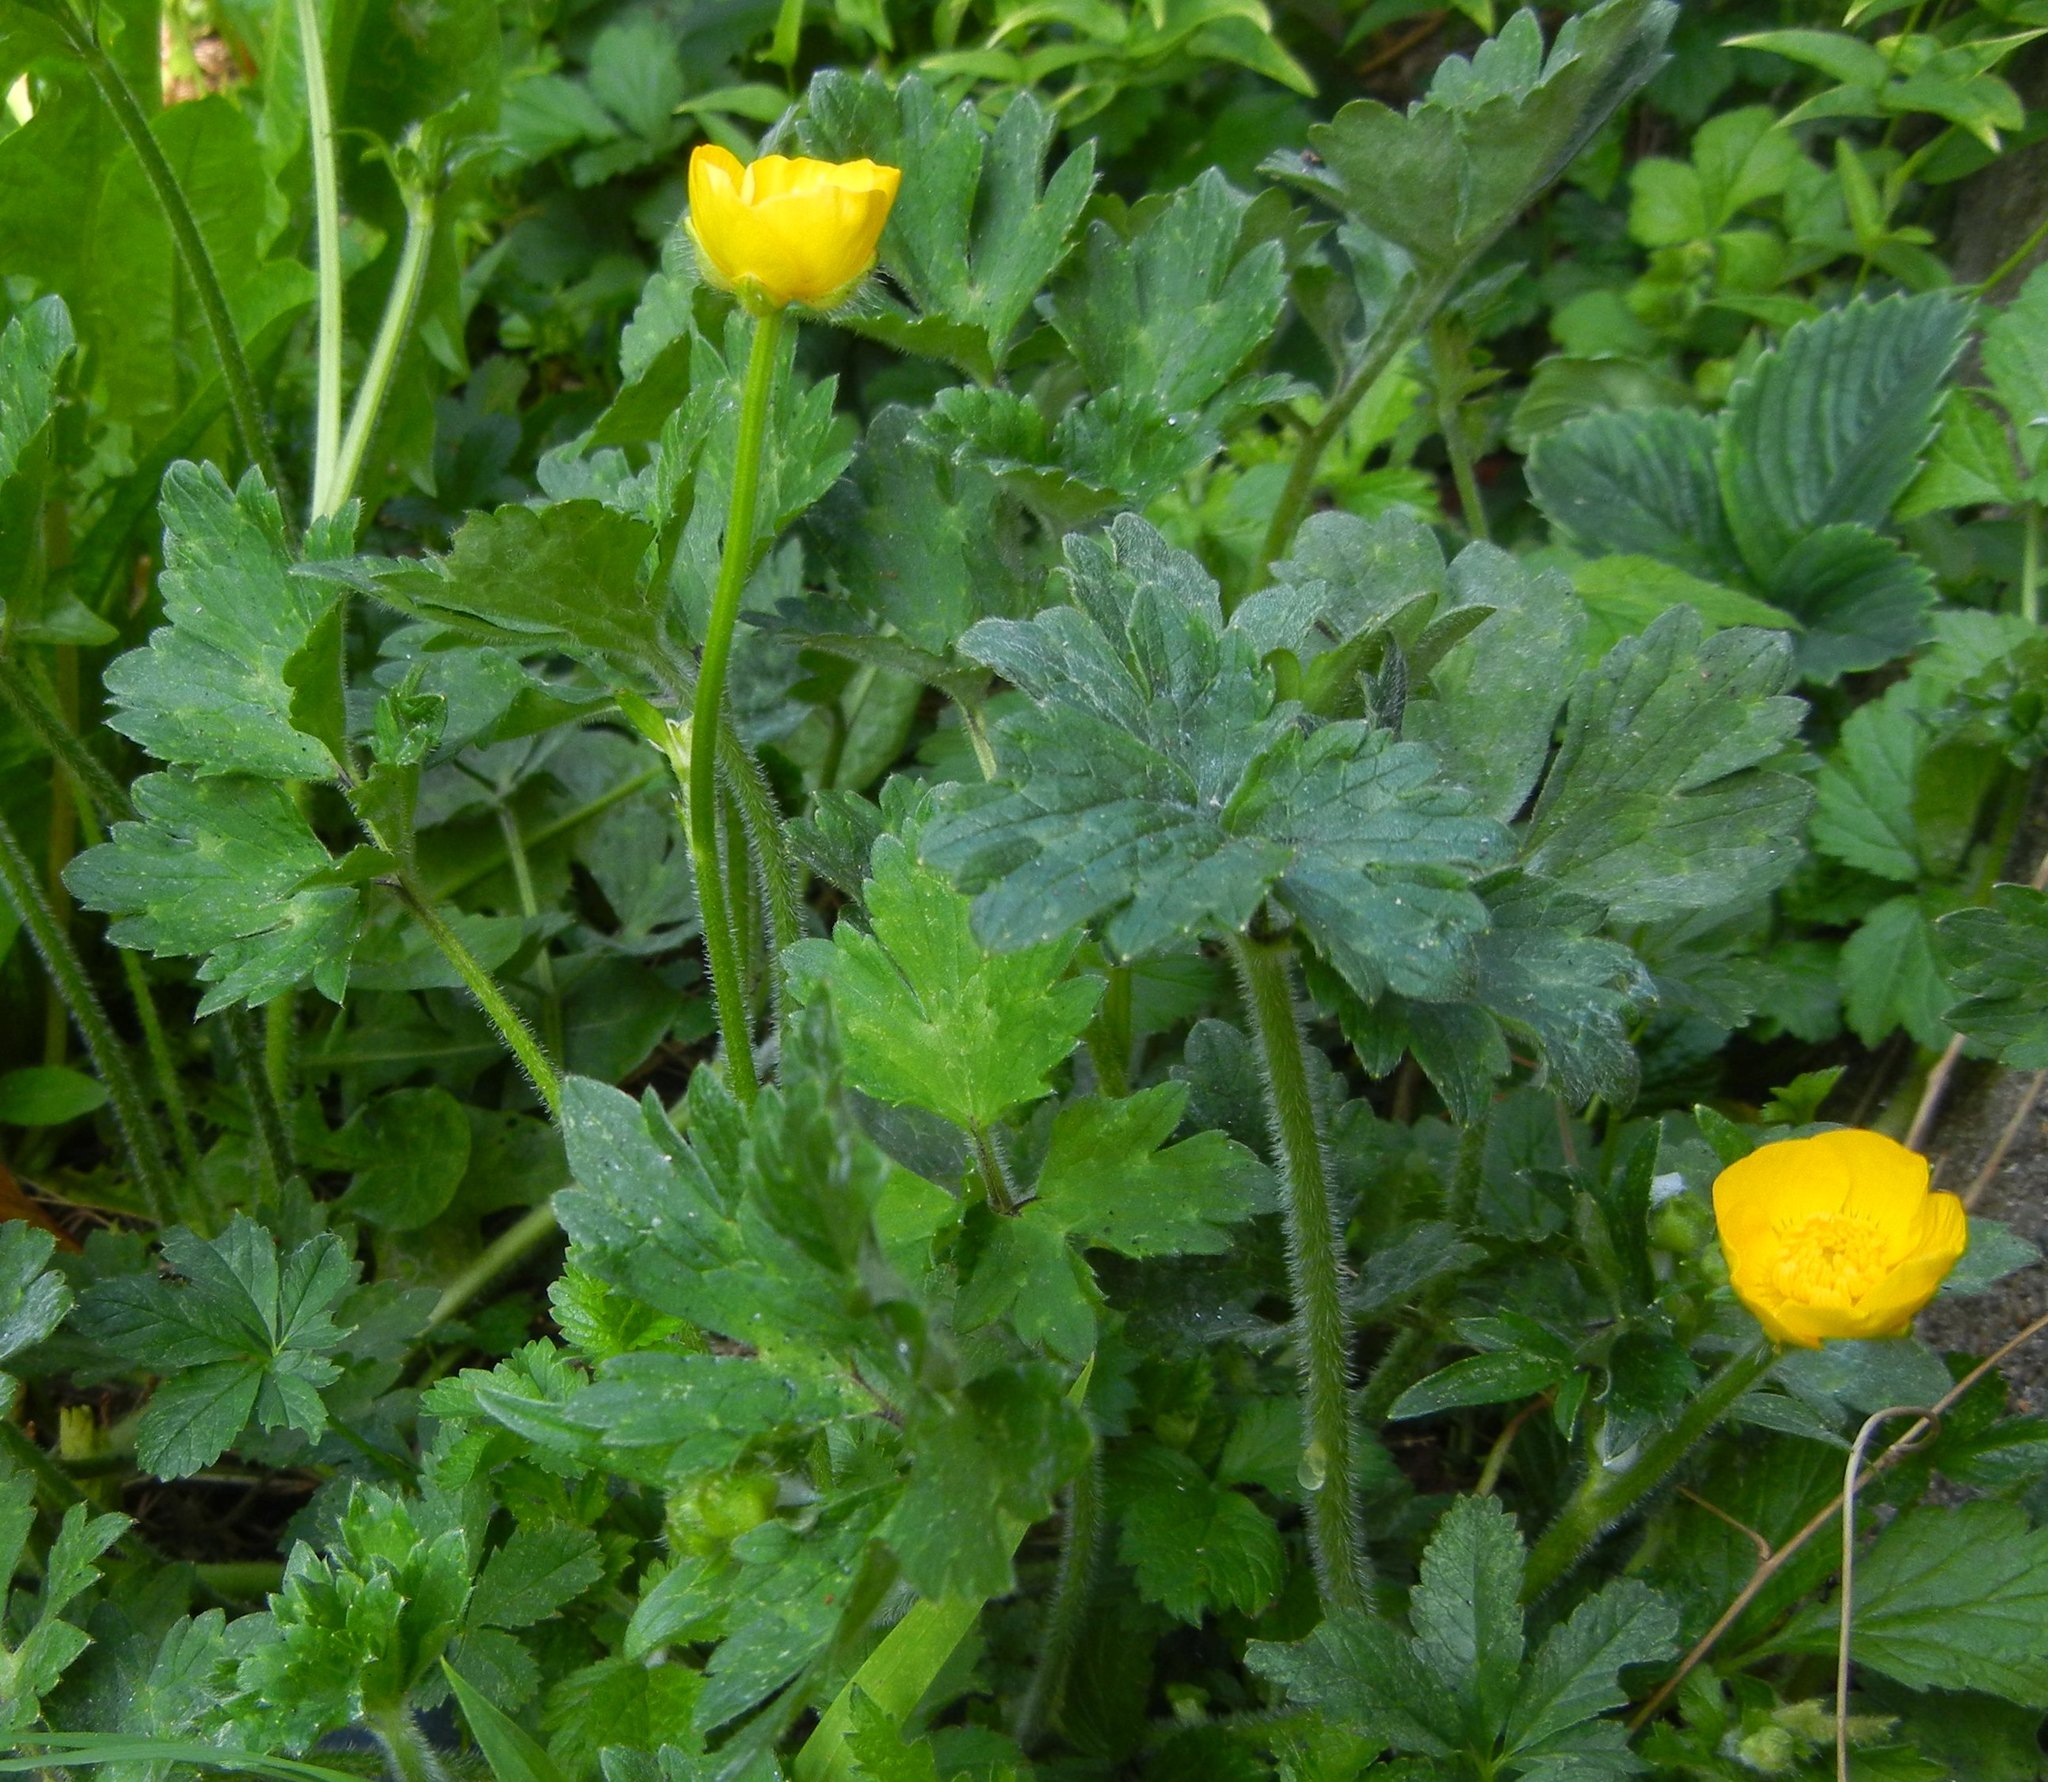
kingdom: Plantae
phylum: Tracheophyta
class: Magnoliopsida
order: Ranunculales
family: Ranunculaceae
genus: Ranunculus
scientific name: Ranunculus repens
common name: Creeping buttercup
